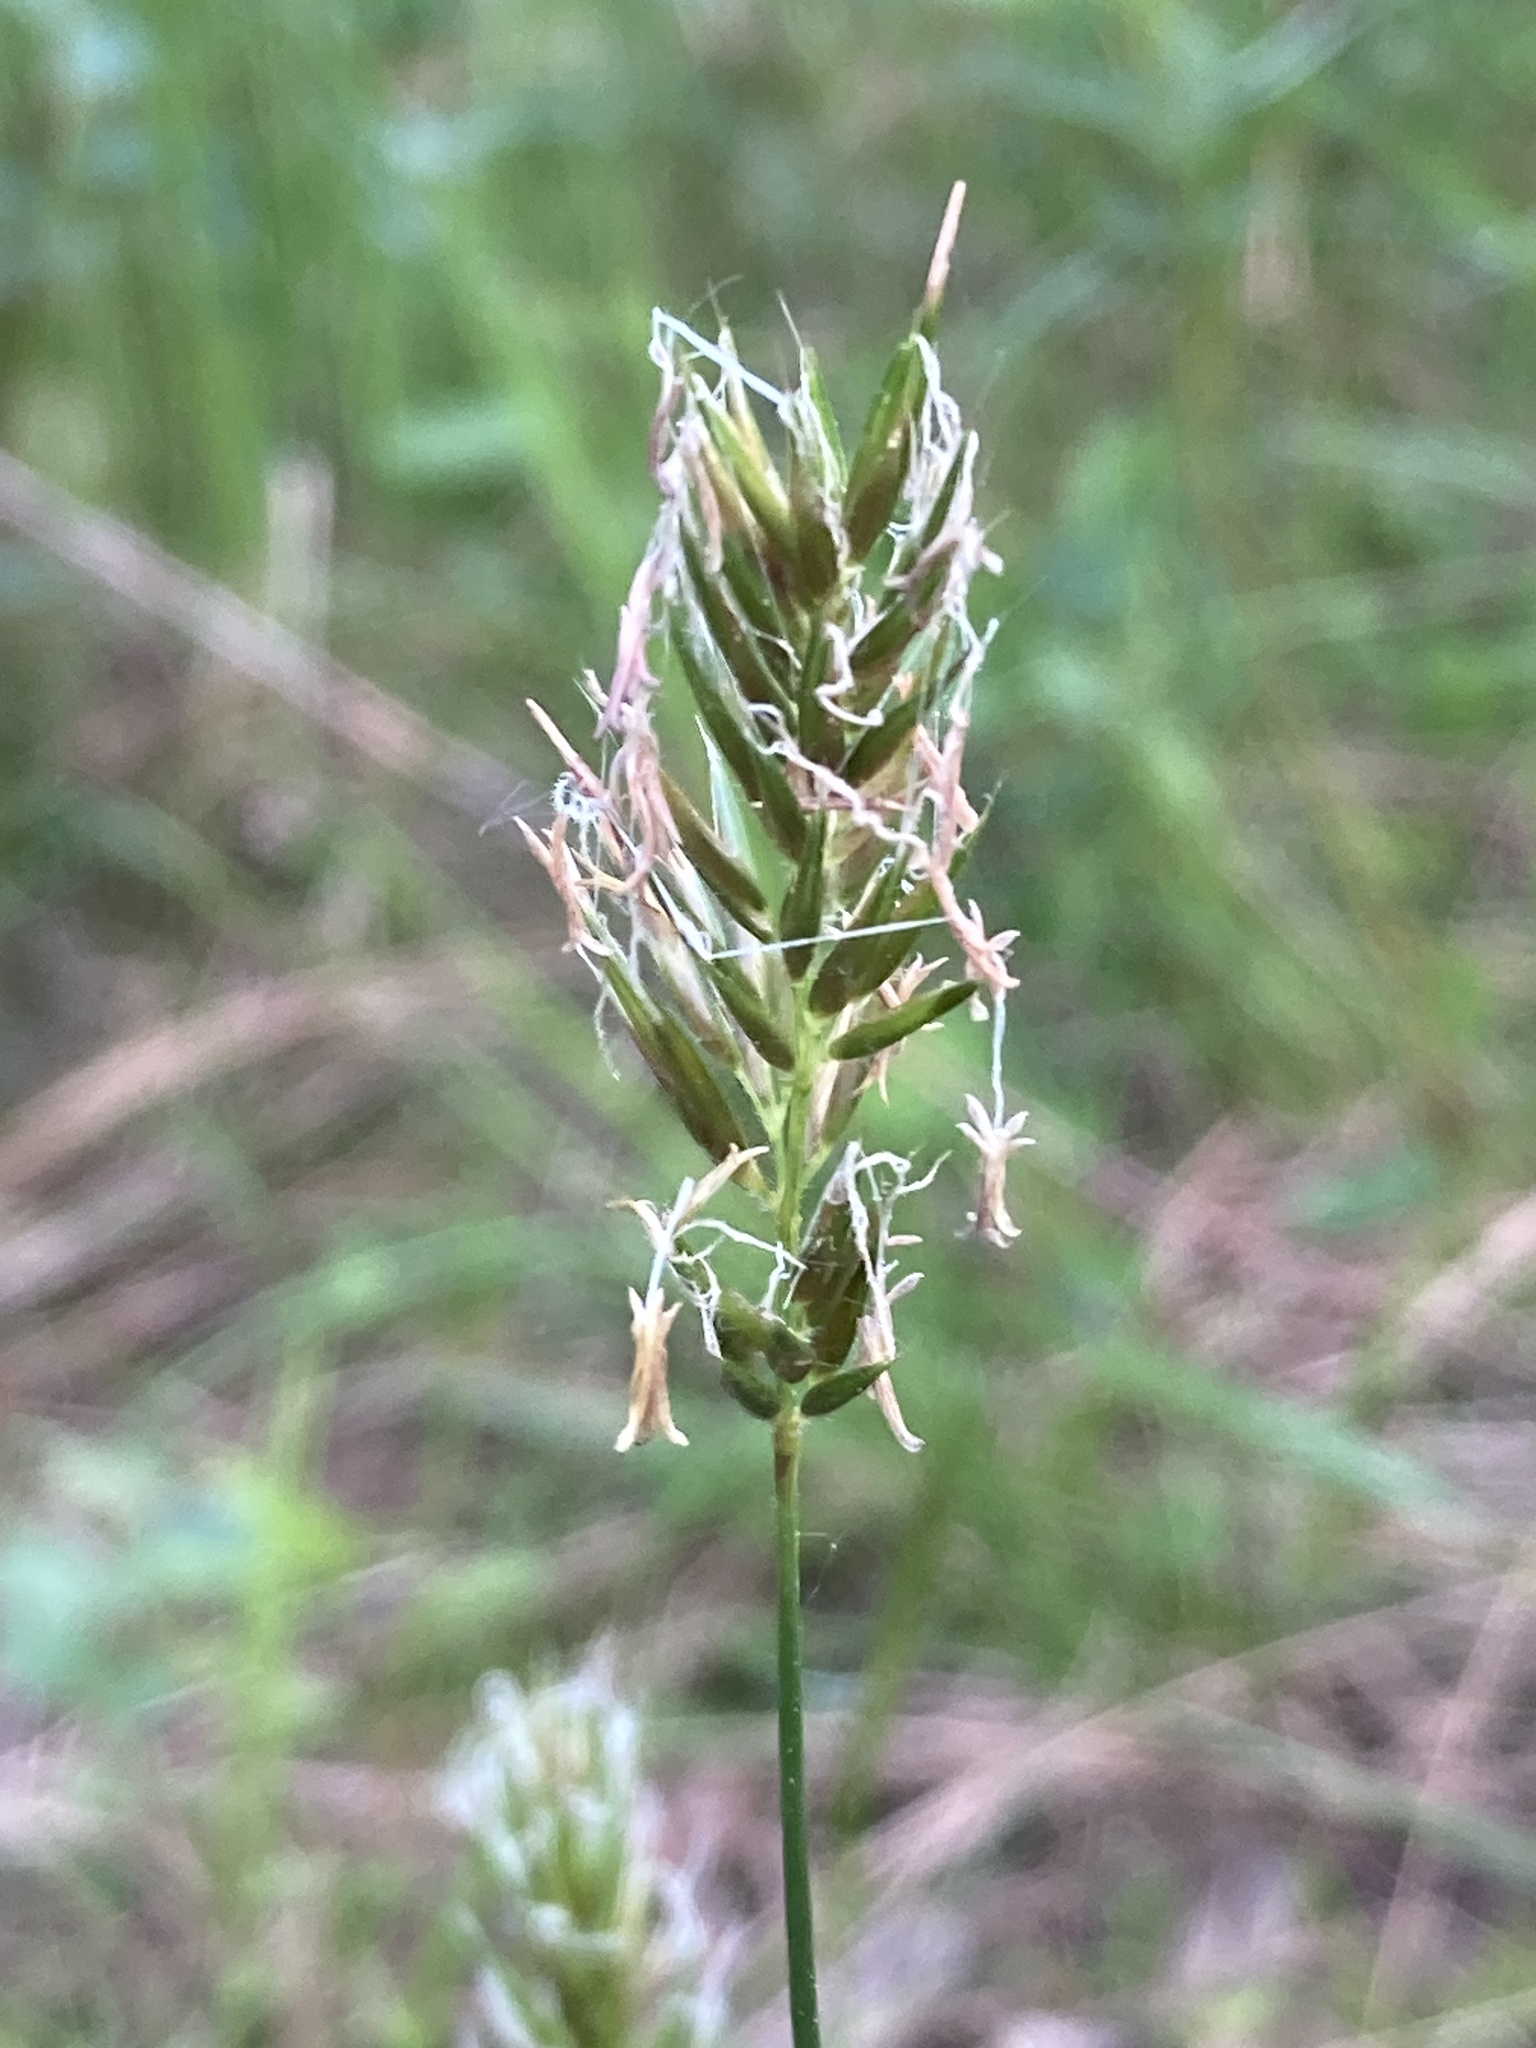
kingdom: Plantae
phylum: Tracheophyta
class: Liliopsida
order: Poales
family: Poaceae
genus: Anthoxanthum
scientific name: Anthoxanthum odoratum
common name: Sweet vernalgrass
